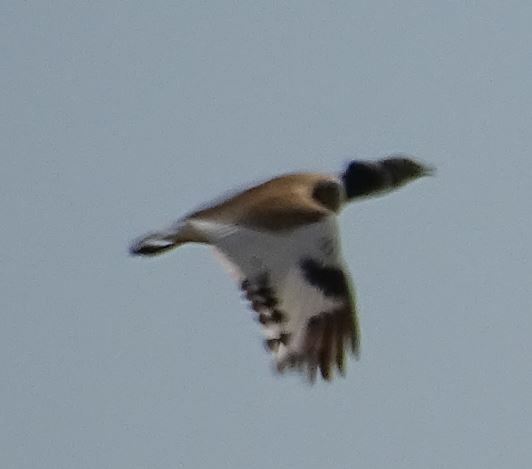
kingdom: Animalia
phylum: Chordata
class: Aves
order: Otidiformes
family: Otididae
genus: Tetrax
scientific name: Tetrax tetrax
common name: Little bustard
